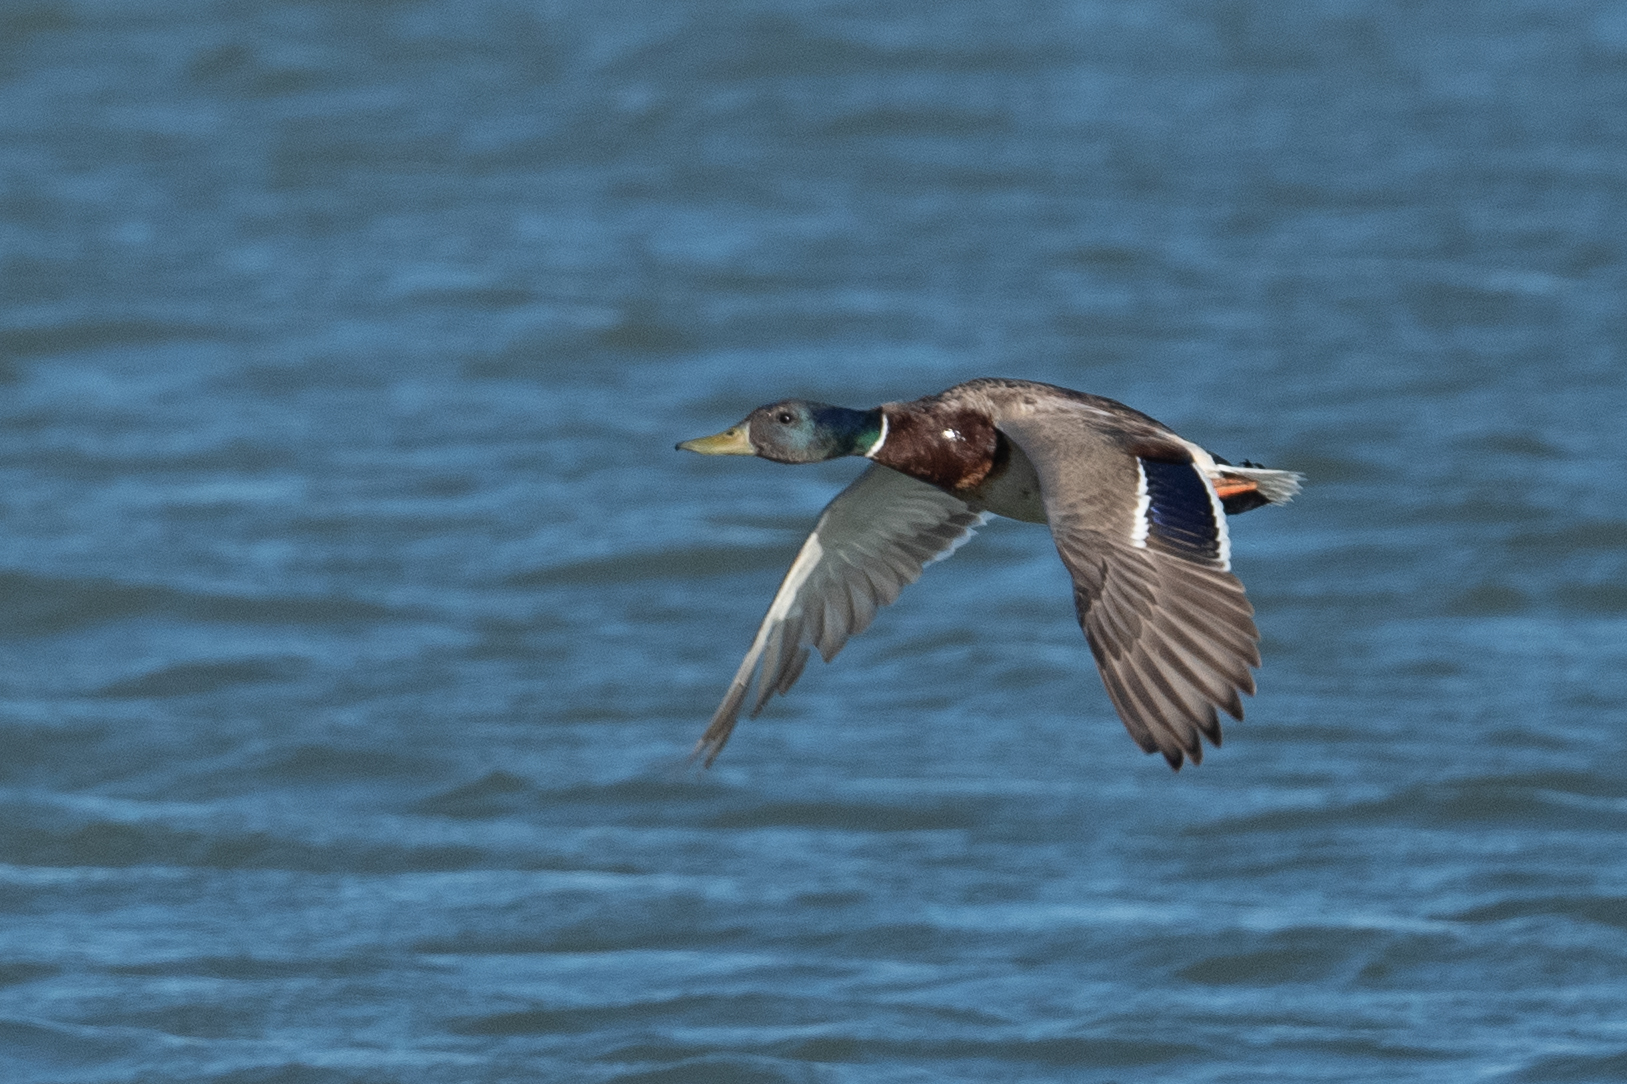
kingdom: Animalia
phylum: Chordata
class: Aves
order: Anseriformes
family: Anatidae
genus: Anas
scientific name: Anas platyrhynchos
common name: Mallard
